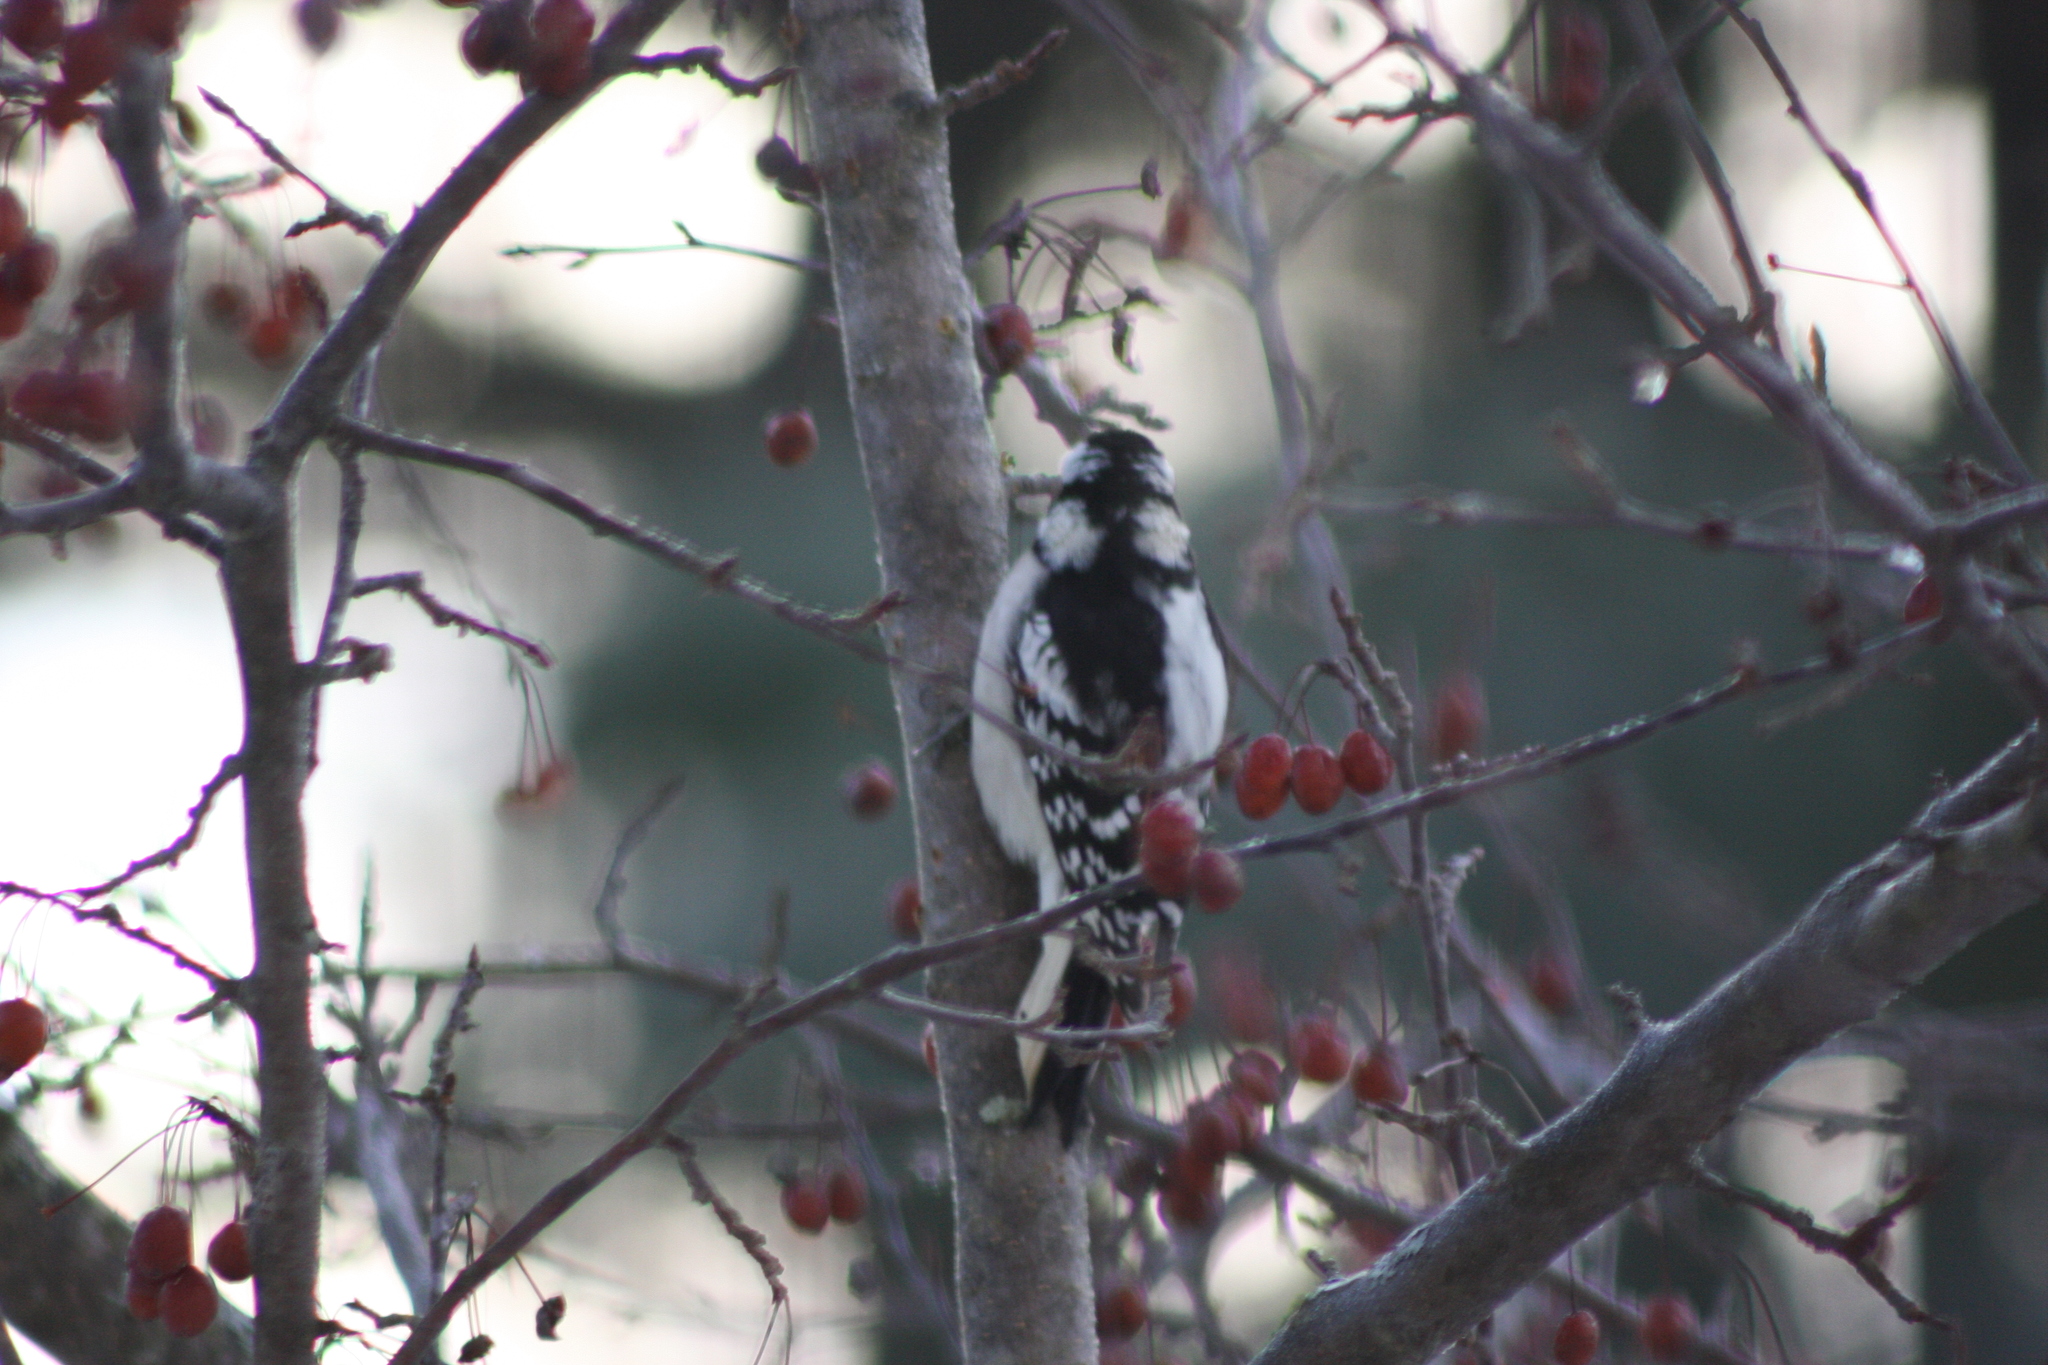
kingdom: Animalia
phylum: Chordata
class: Aves
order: Piciformes
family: Picidae
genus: Dryobates
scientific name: Dryobates pubescens
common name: Downy woodpecker
